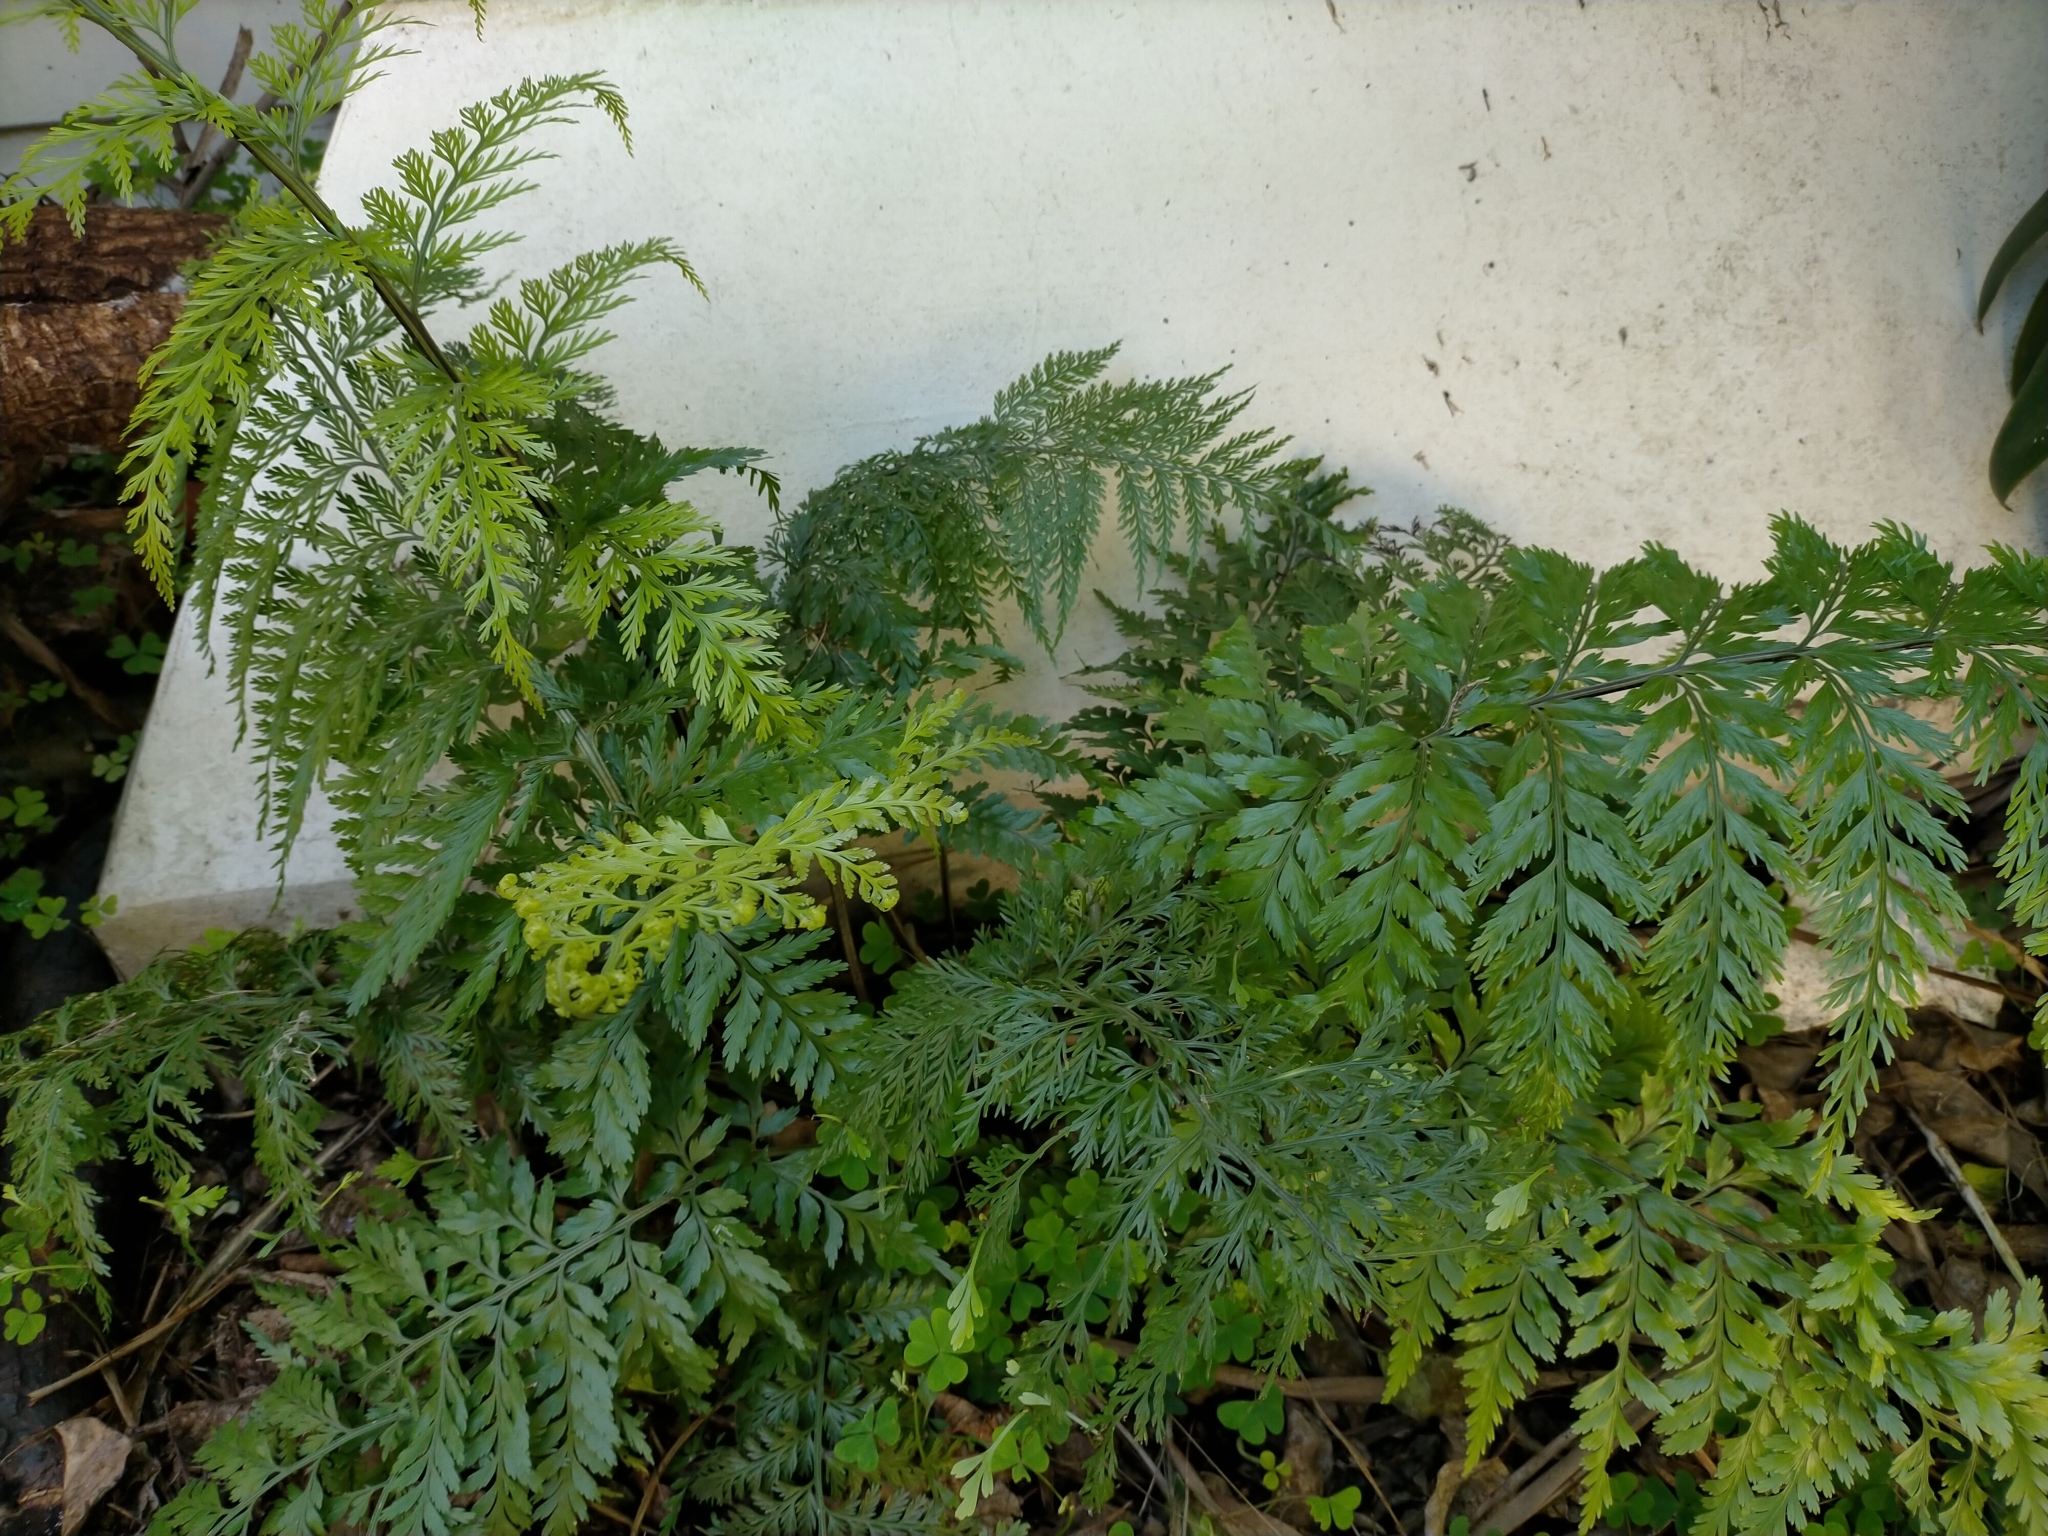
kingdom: Plantae
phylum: Tracheophyta
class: Polypodiopsida
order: Polypodiales
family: Aspleniaceae
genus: Asplenium
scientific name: Asplenium lucrosum
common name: False hen-and-chickens fern
